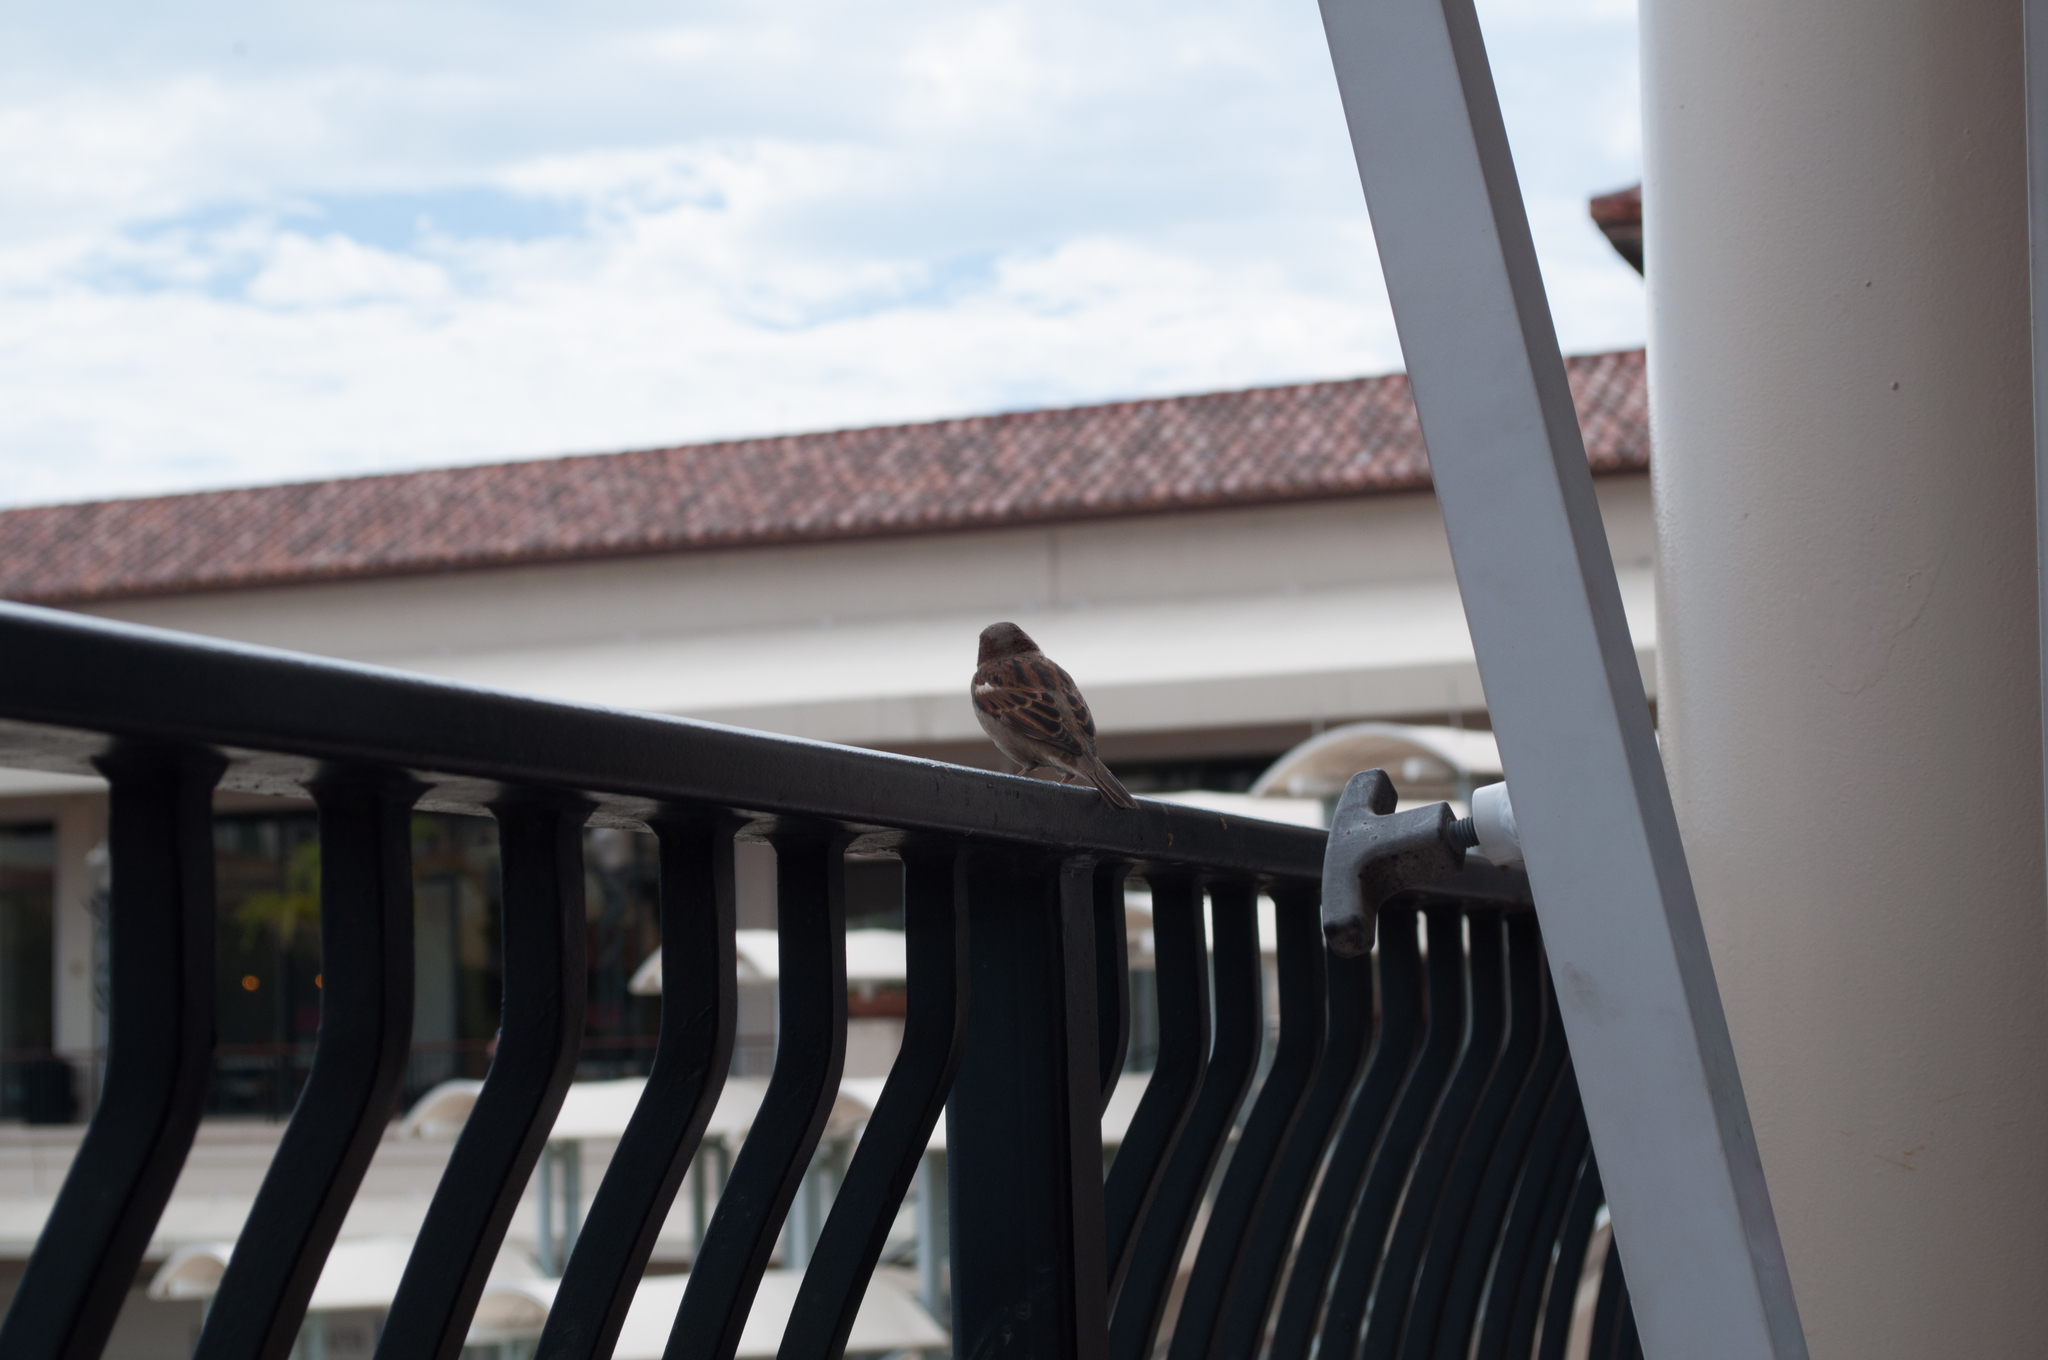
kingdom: Animalia
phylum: Chordata
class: Aves
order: Passeriformes
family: Passeridae
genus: Passer
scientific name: Passer domesticus
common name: House sparrow
